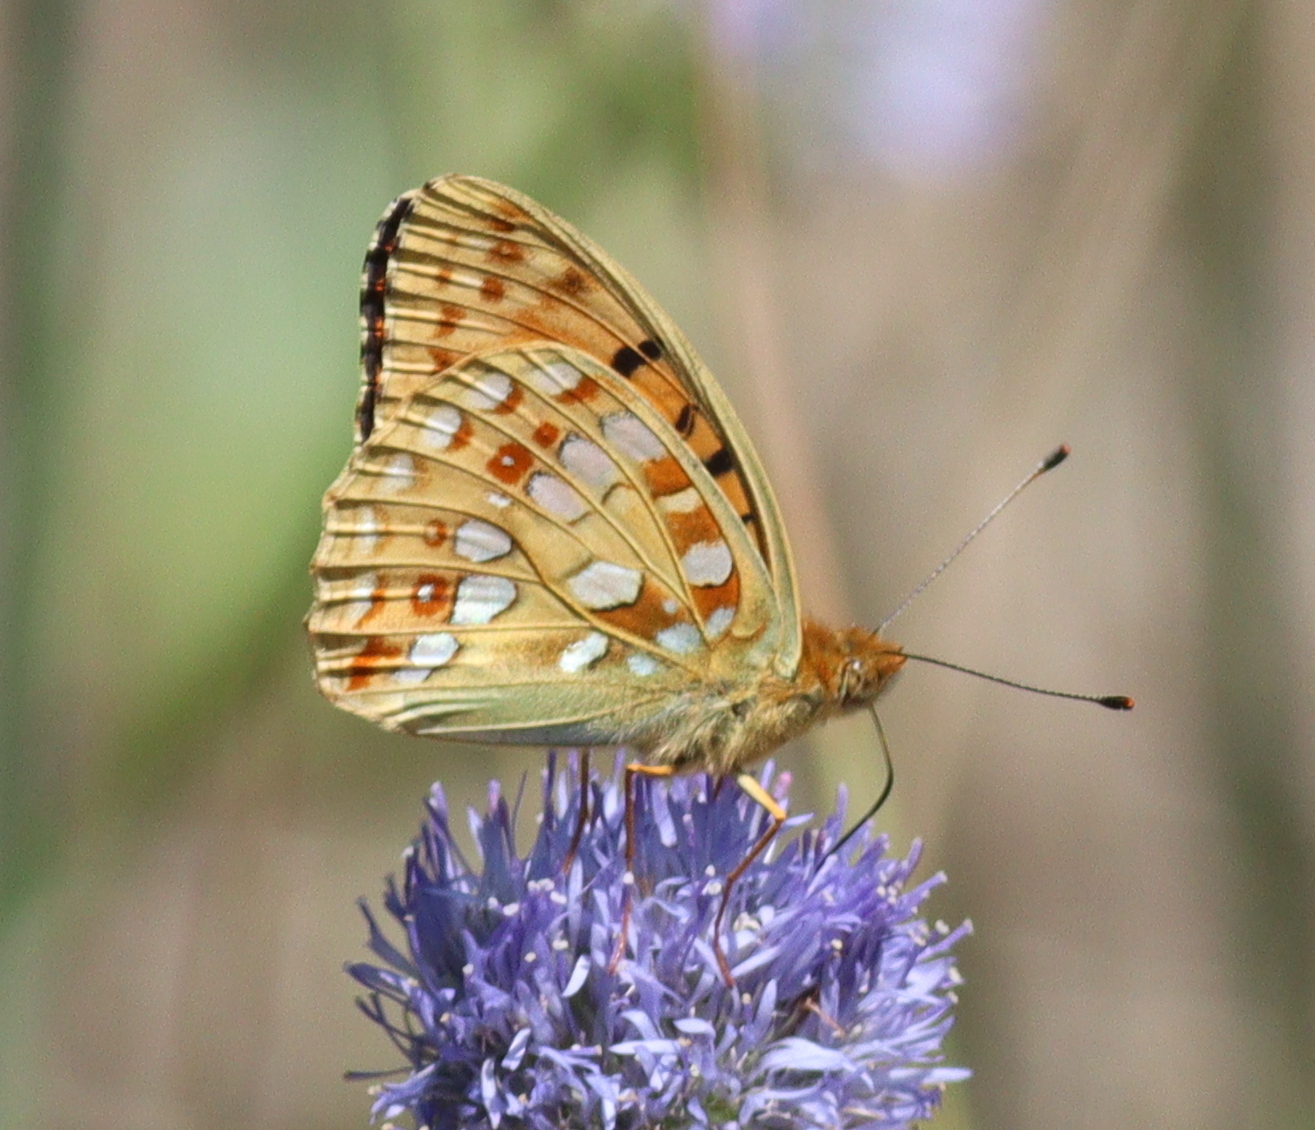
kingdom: Animalia
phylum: Arthropoda
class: Insecta
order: Lepidoptera
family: Nymphalidae
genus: Fabriciana
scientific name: Fabriciana adippe
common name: High brown fritillary
